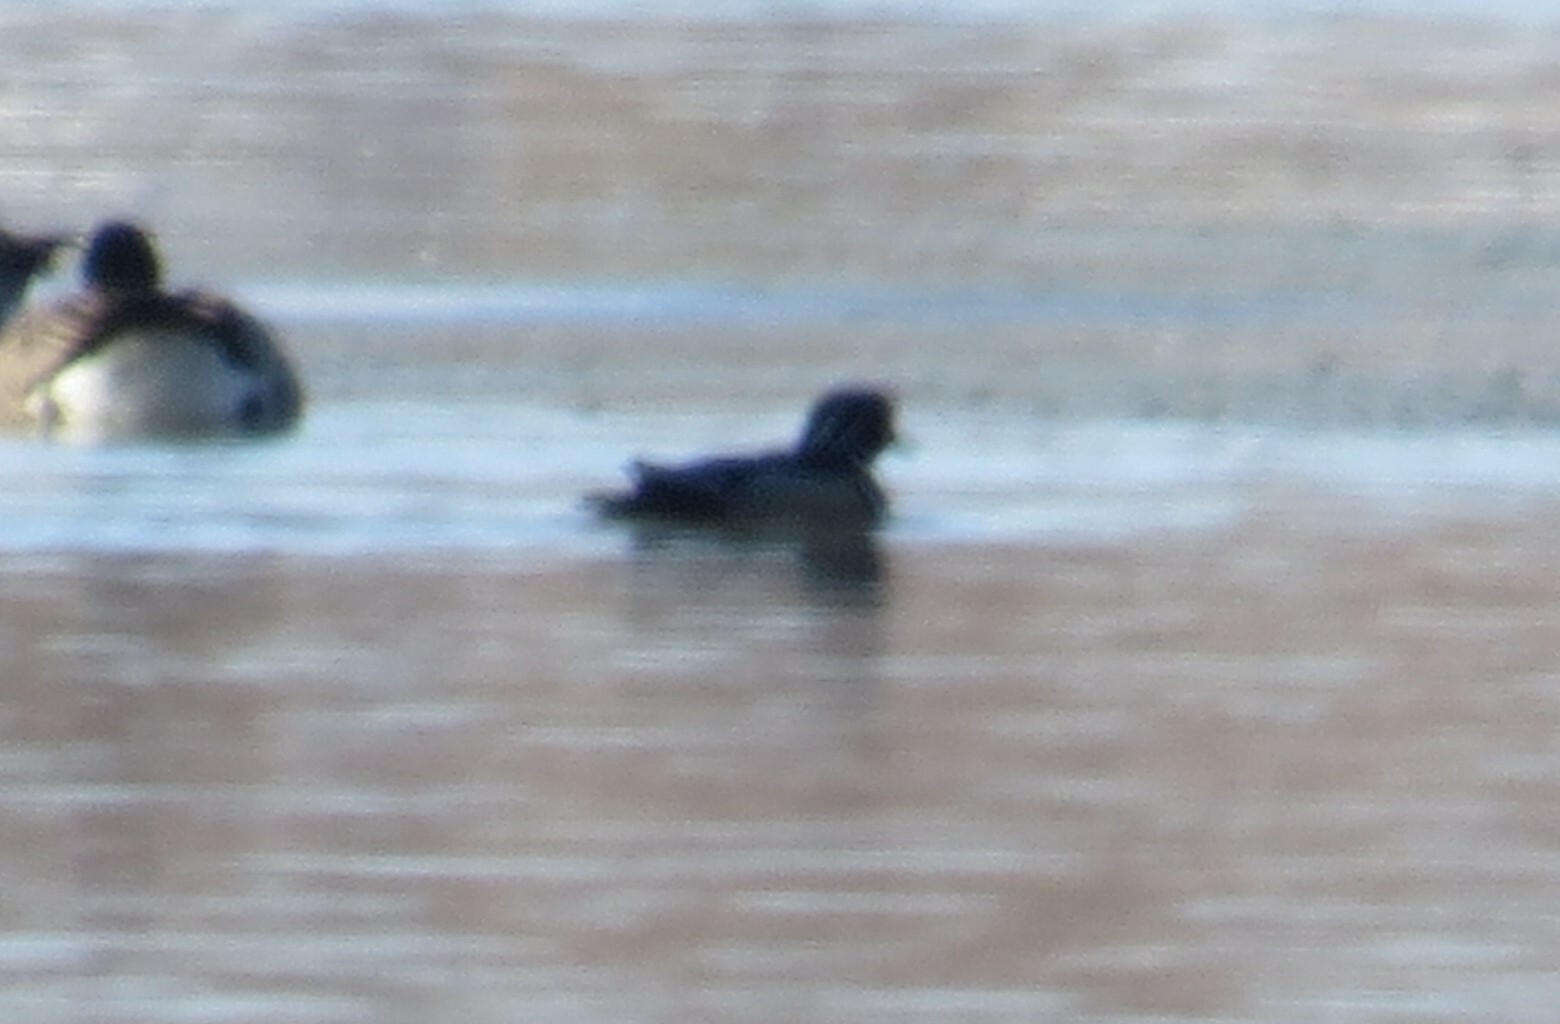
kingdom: Animalia
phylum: Chordata
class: Aves
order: Anseriformes
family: Anatidae
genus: Aix
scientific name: Aix sponsa
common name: Wood duck
